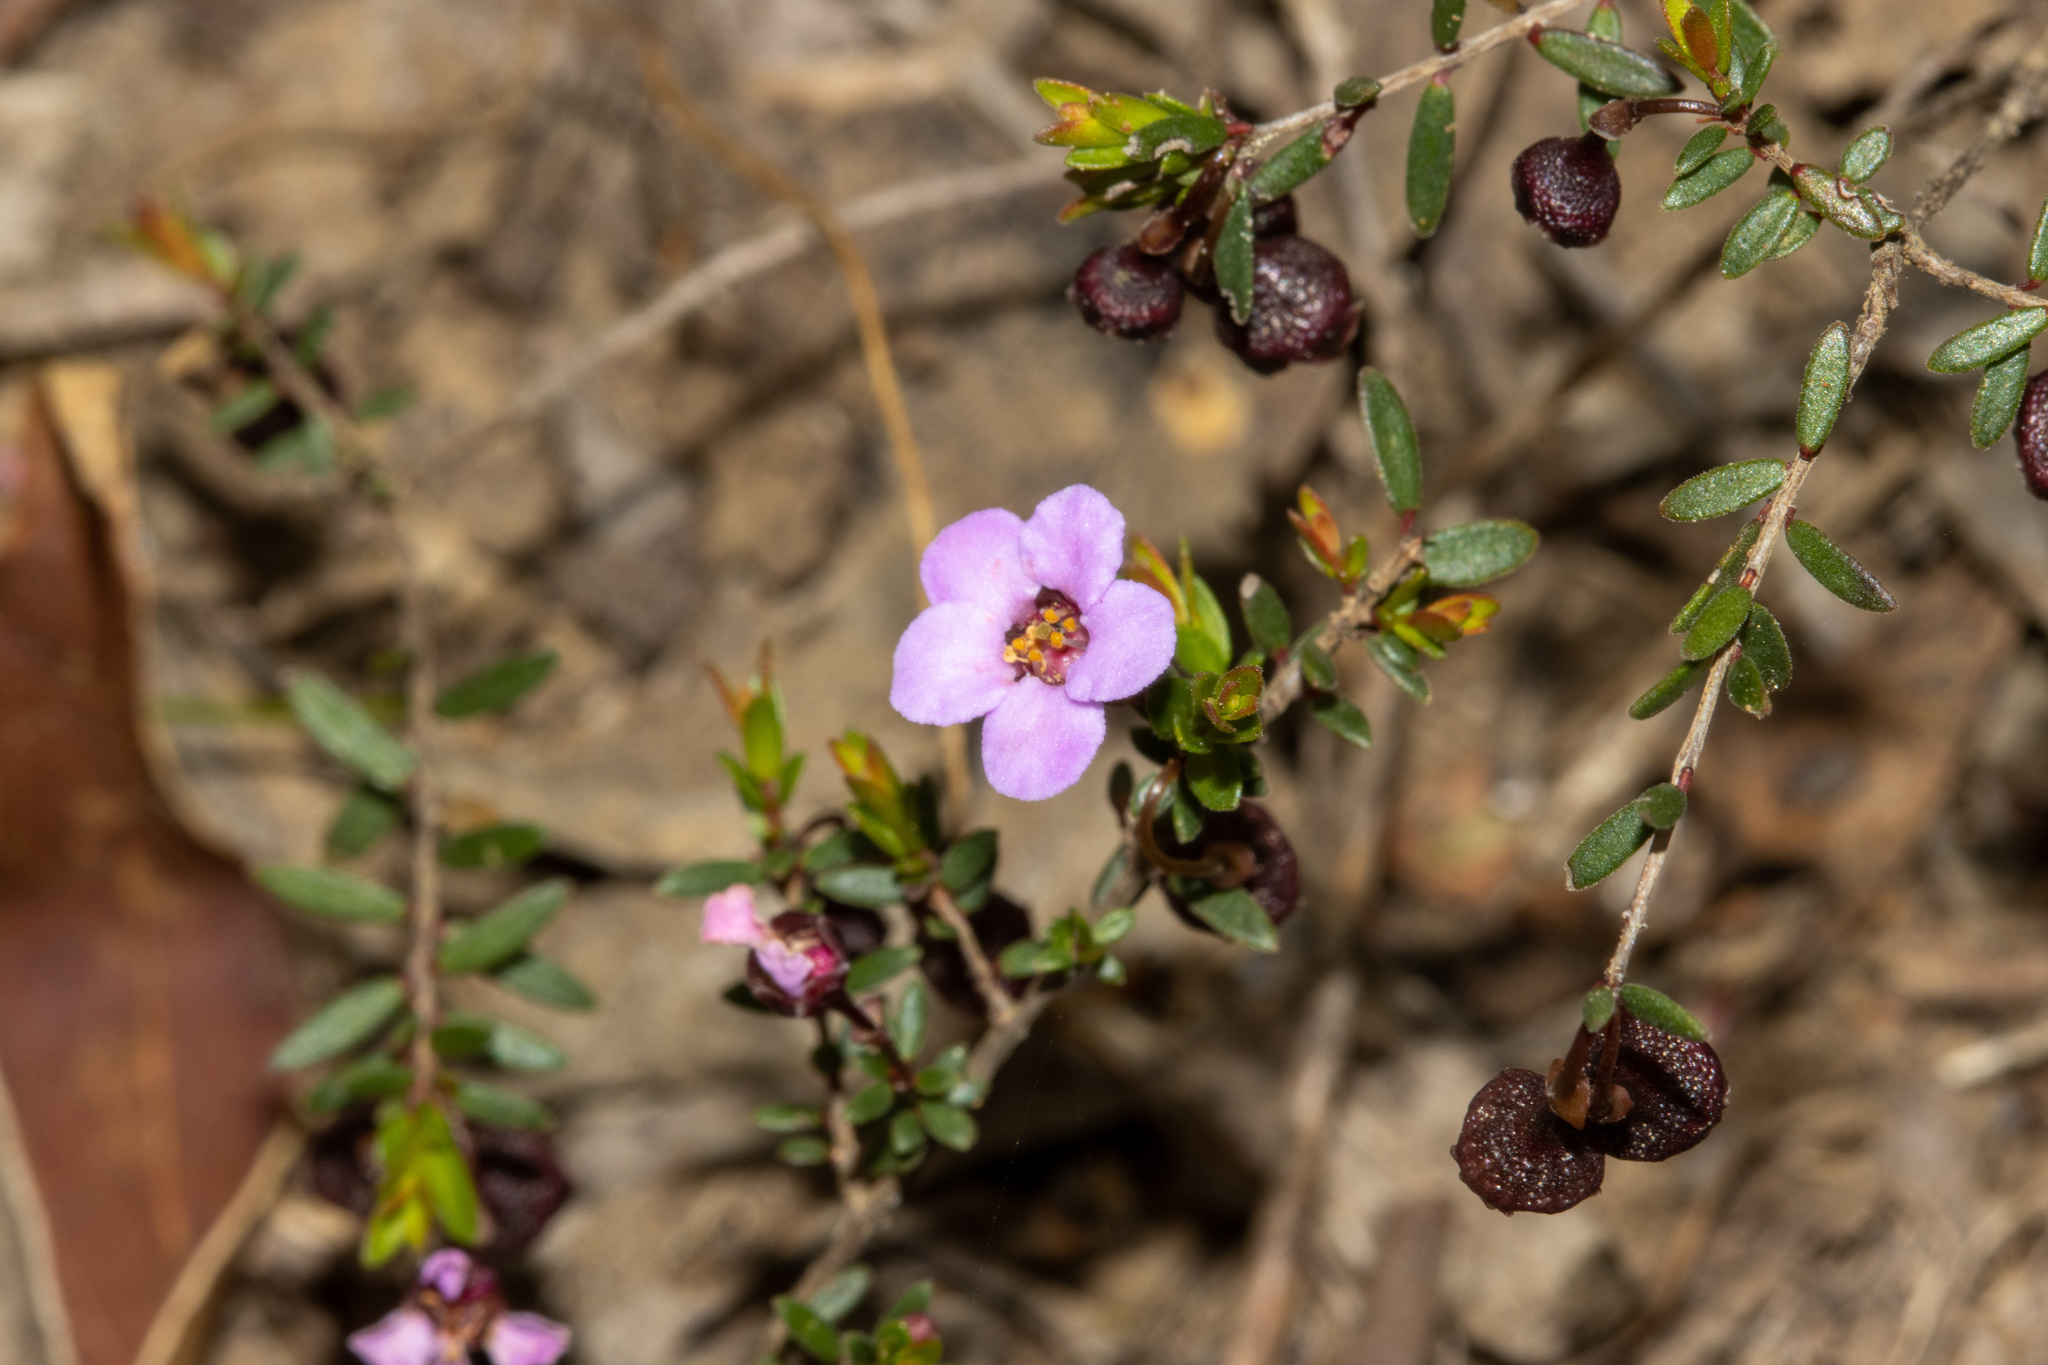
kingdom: Plantae
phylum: Tracheophyta
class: Magnoliopsida
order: Myrtales
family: Myrtaceae
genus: Euryomyrtus
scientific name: Euryomyrtus ramosissima
